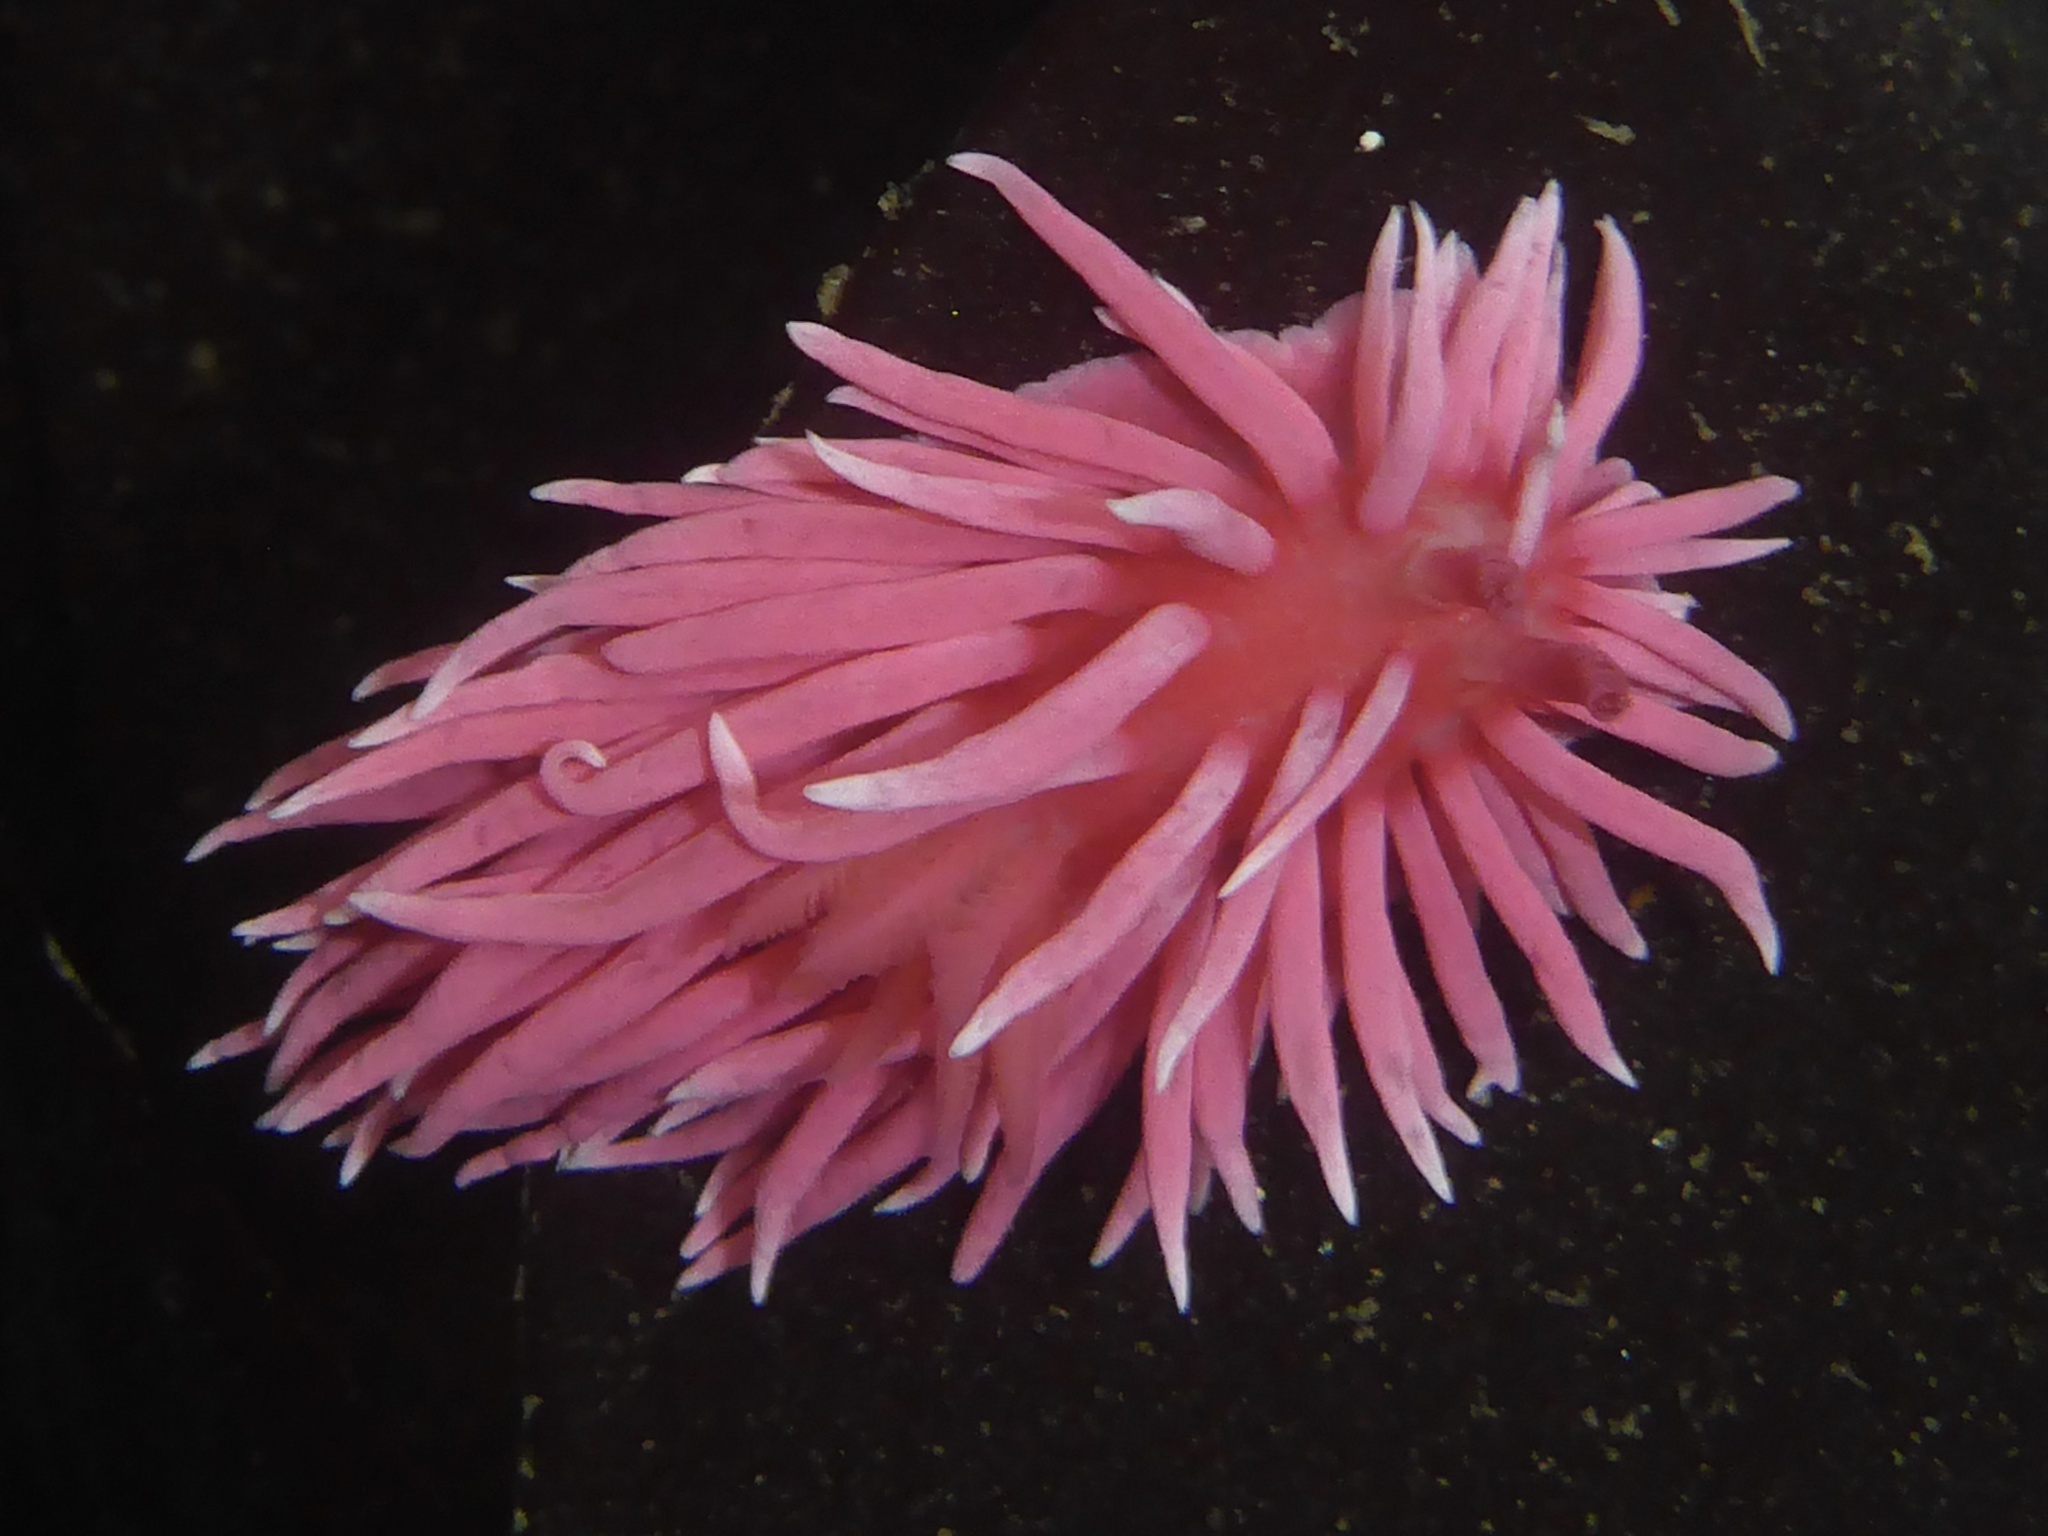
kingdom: Animalia
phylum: Mollusca
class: Gastropoda
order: Nudibranchia
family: Goniodorididae
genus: Okenia
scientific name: Okenia
